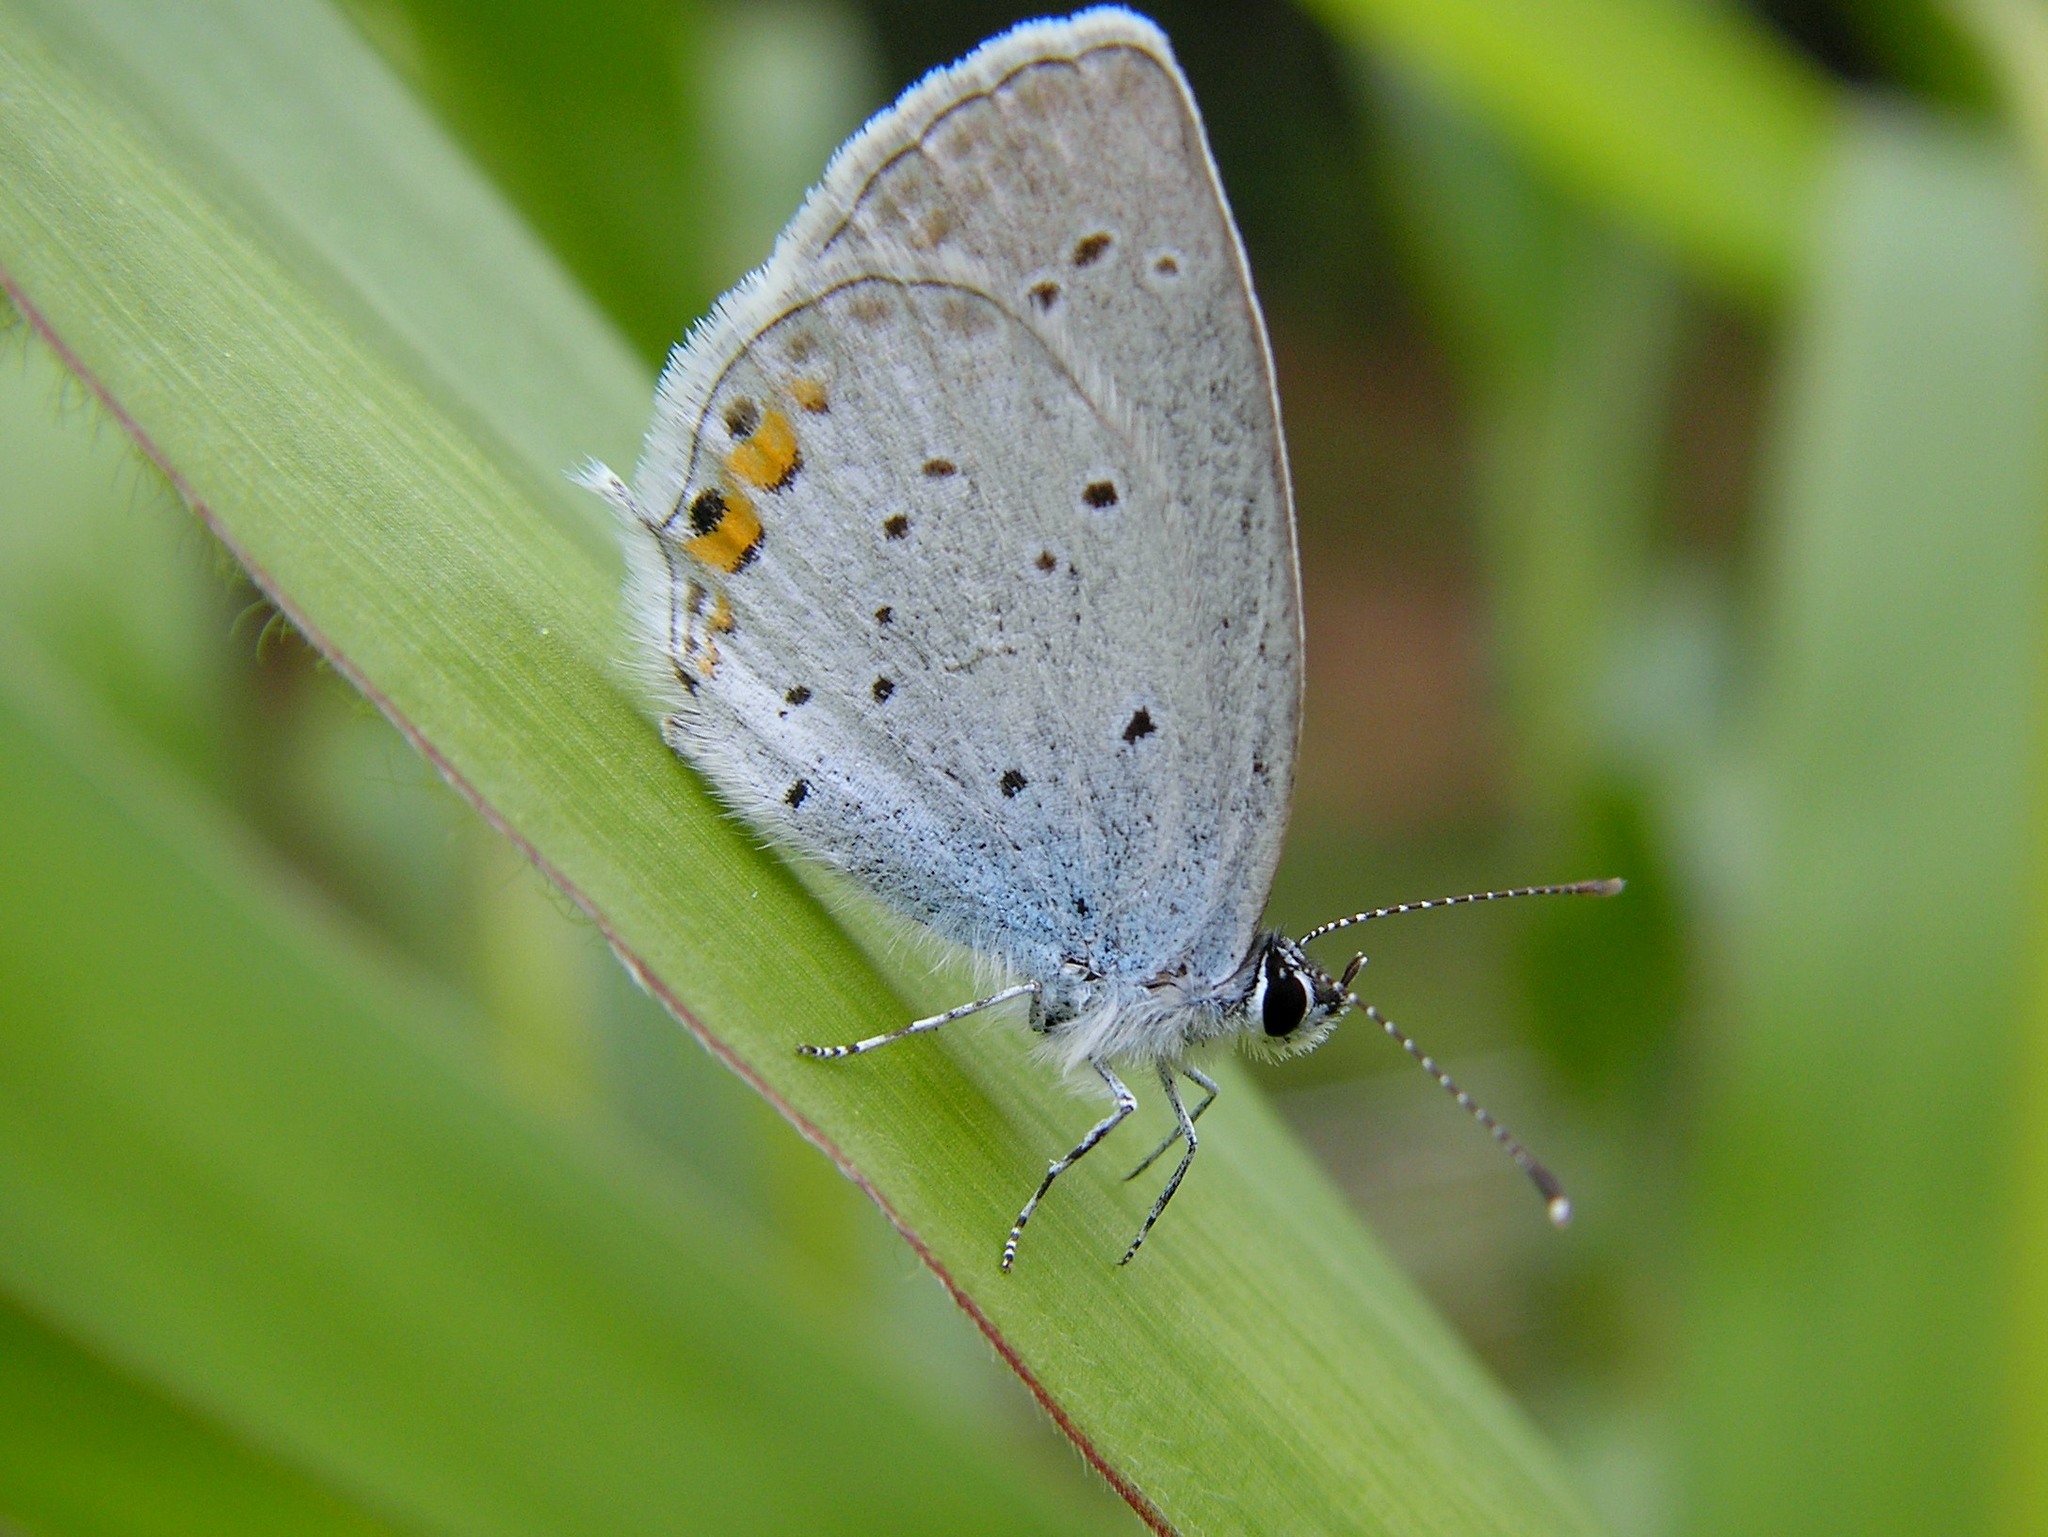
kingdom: Animalia
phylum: Arthropoda
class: Insecta
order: Lepidoptera
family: Lycaenidae
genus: Elkalyce
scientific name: Elkalyce argiades
